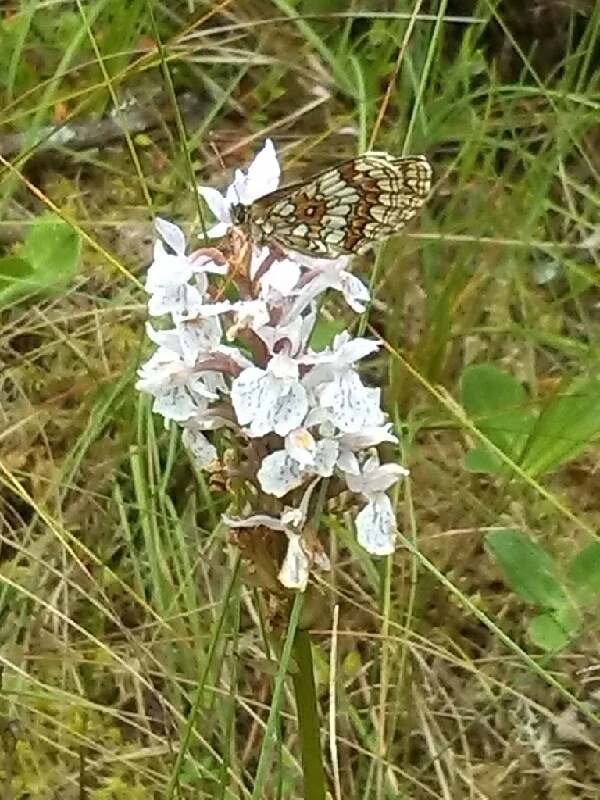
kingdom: Plantae
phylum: Tracheophyta
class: Liliopsida
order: Asparagales
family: Orchidaceae
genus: Dactylorhiza
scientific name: Dactylorhiza maculata
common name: Heath spotted-orchid
